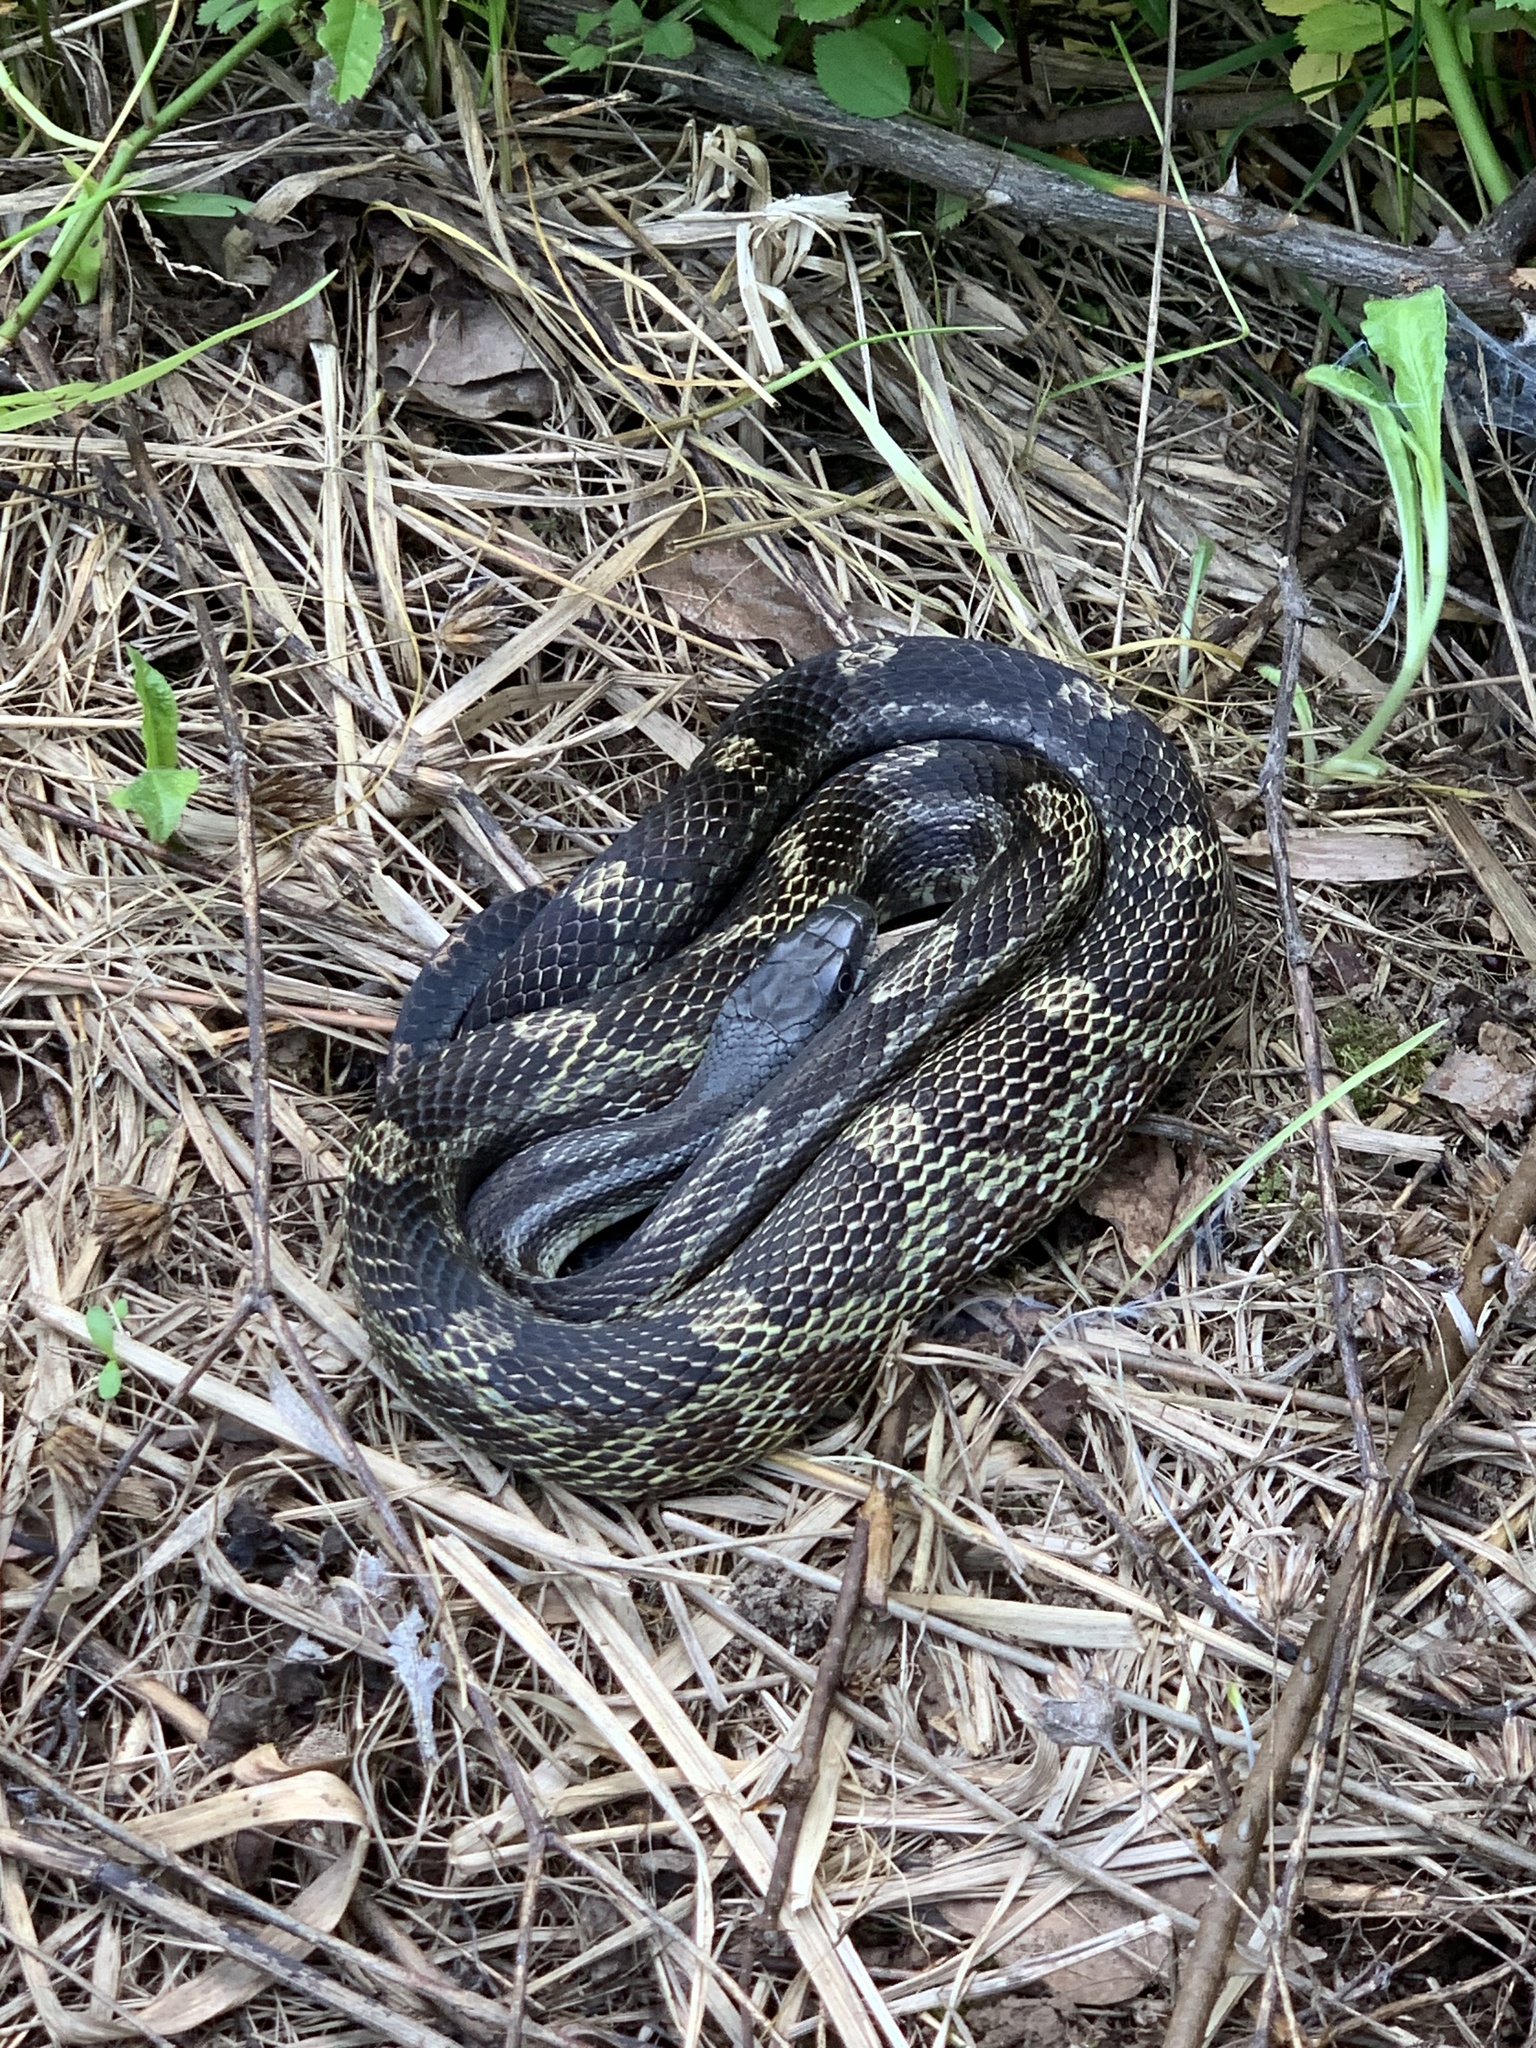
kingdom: Animalia
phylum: Chordata
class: Squamata
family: Colubridae
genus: Pantherophis
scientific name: Pantherophis spiloides
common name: Gray rat snake
